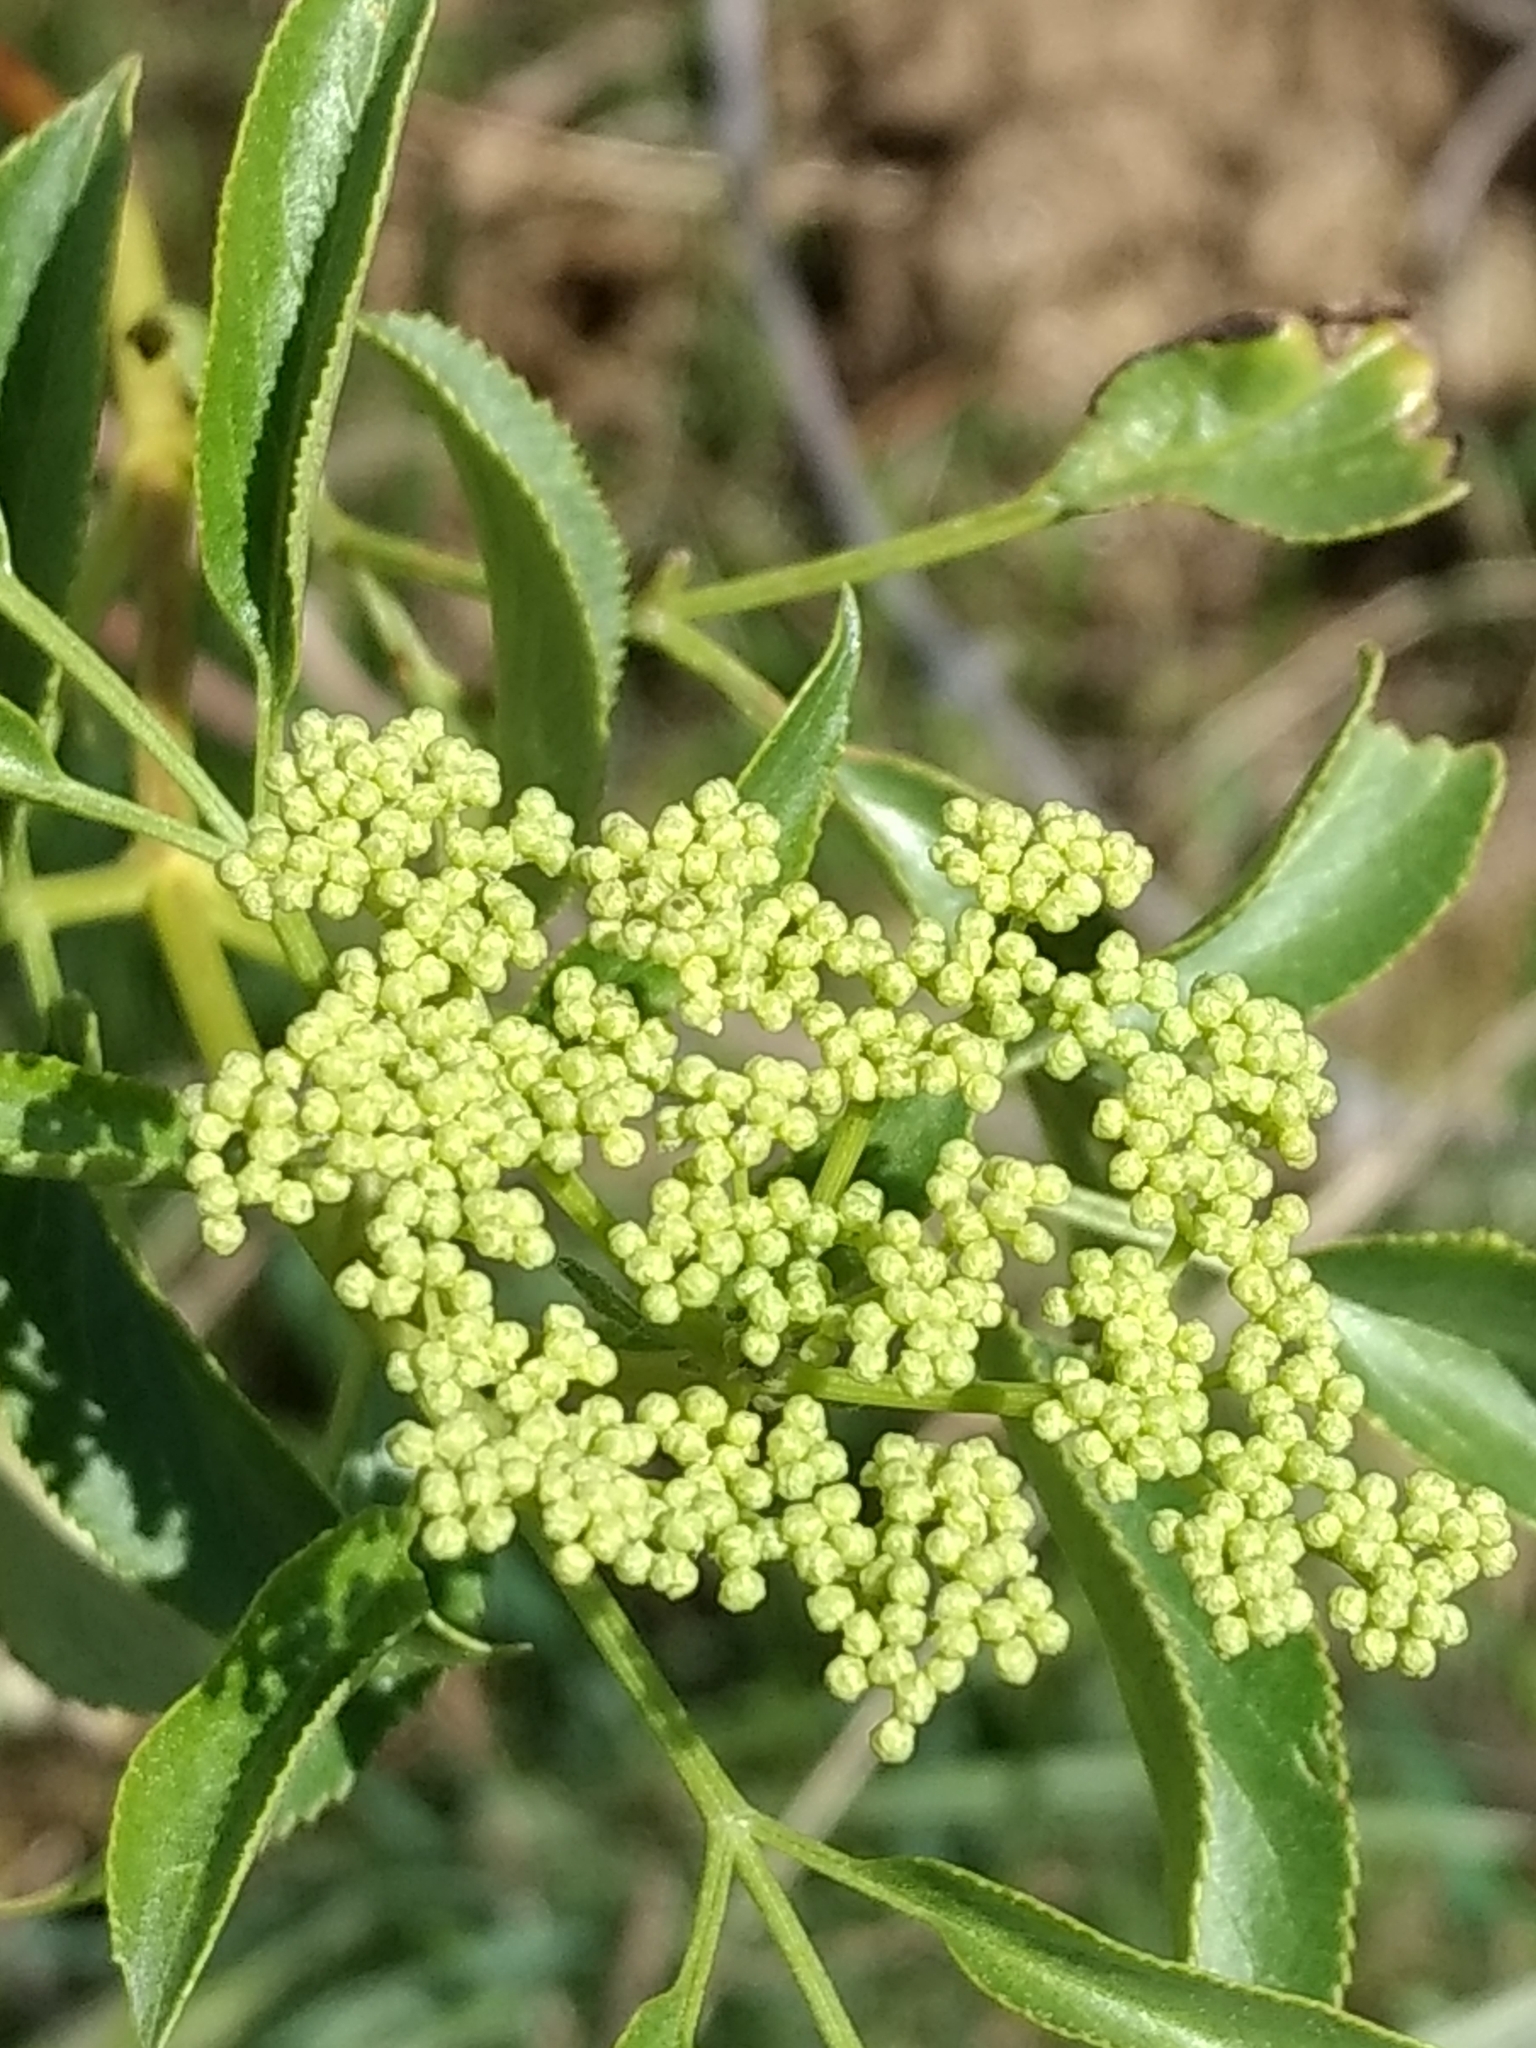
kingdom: Plantae
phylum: Tracheophyta
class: Magnoliopsida
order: Dipsacales
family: Viburnaceae
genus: Sambucus
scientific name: Sambucus cerulea
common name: Blue elder
